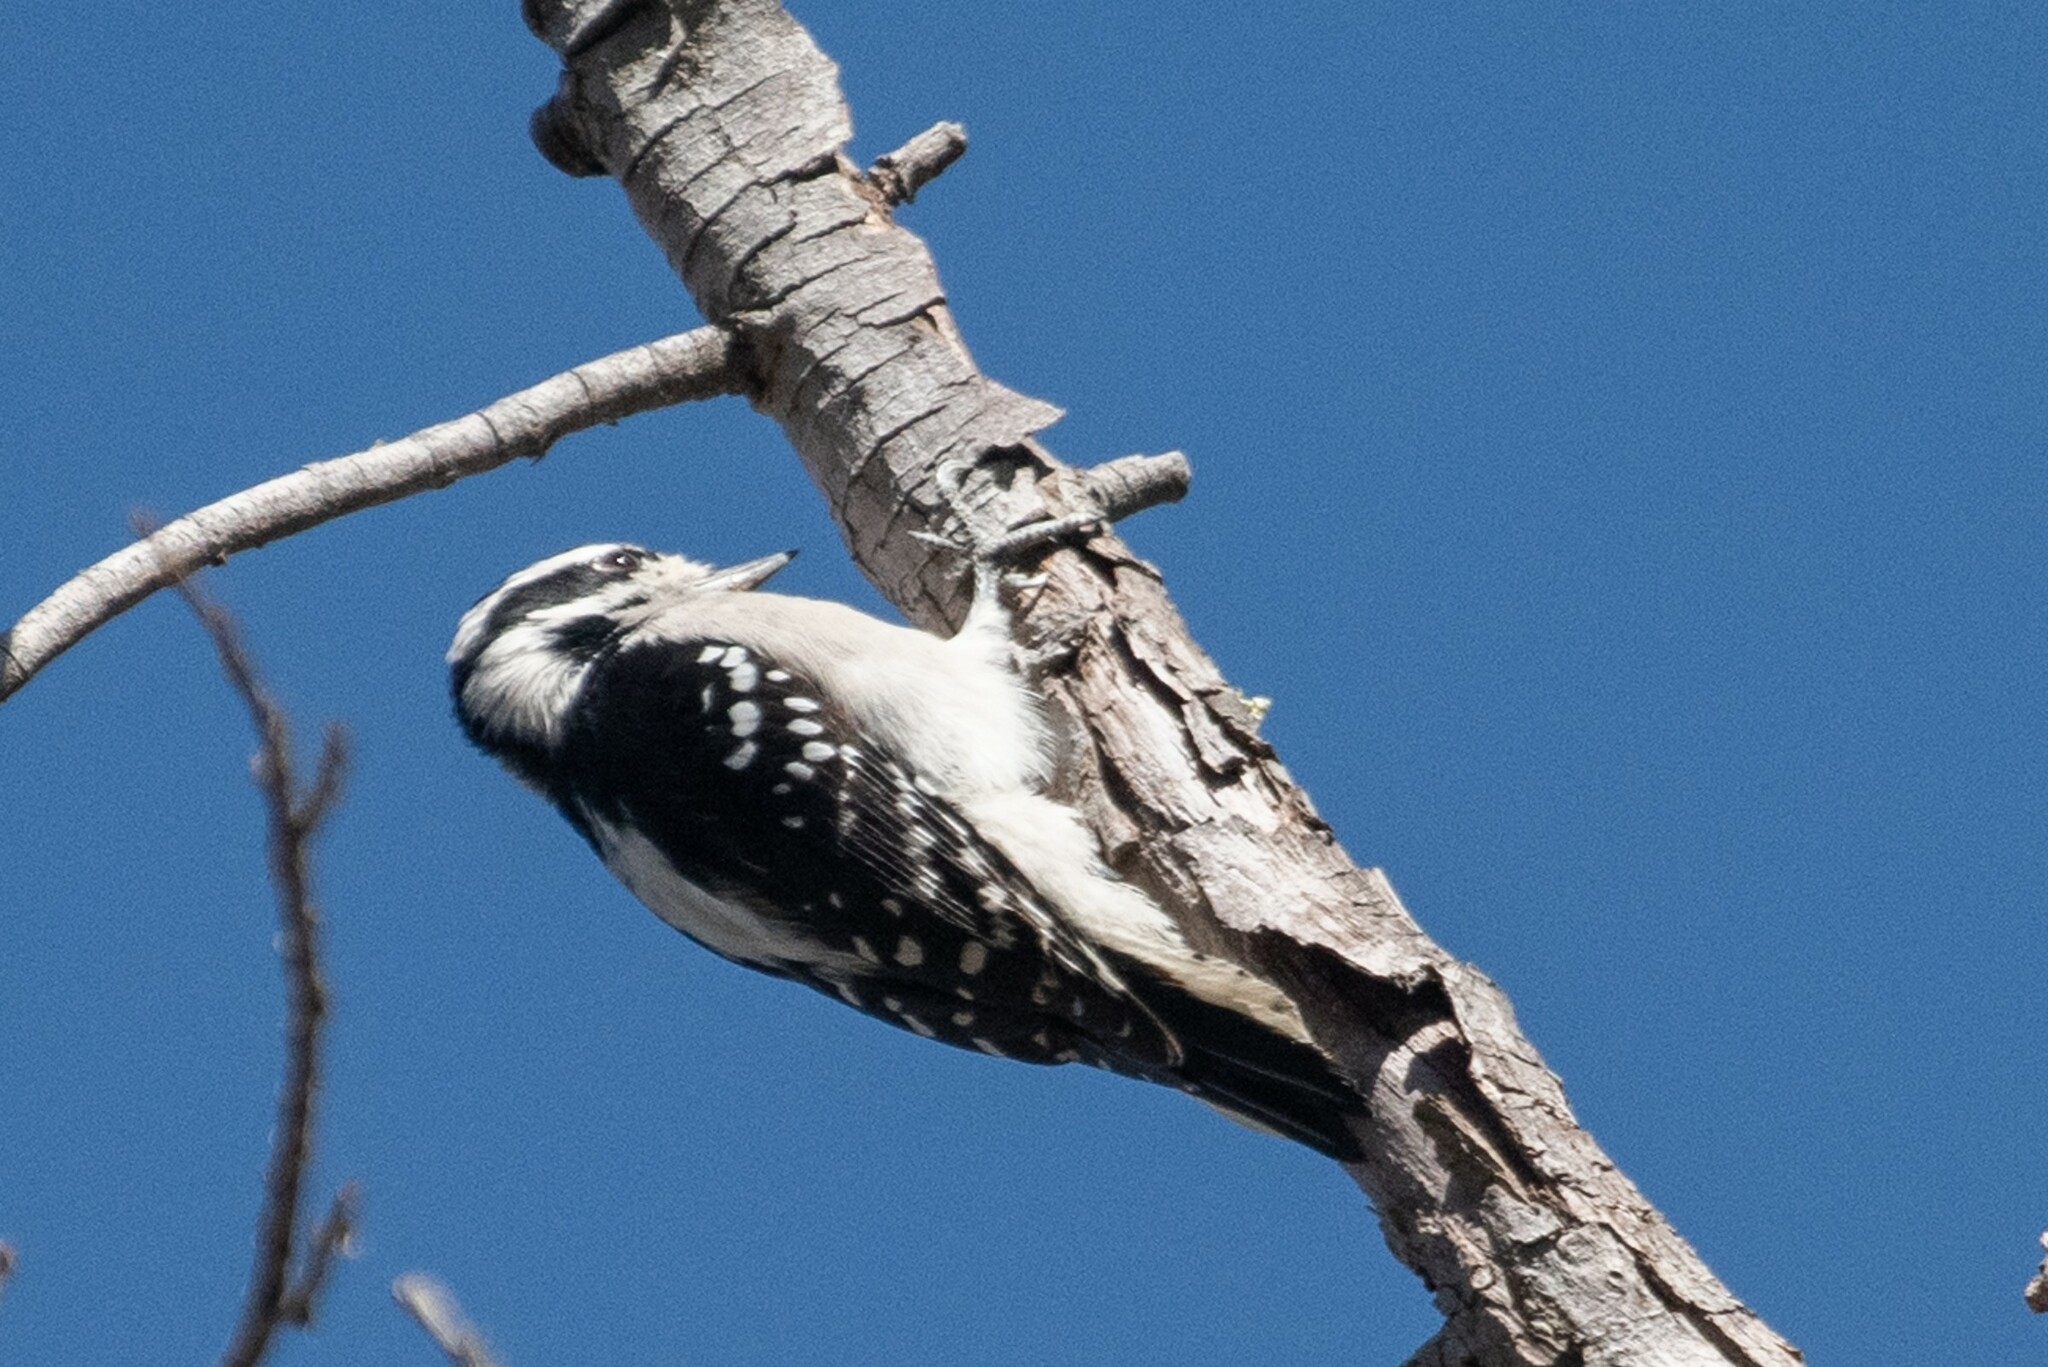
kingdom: Animalia
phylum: Chordata
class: Aves
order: Piciformes
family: Picidae
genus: Dryobates
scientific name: Dryobates pubescens
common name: Downy woodpecker
